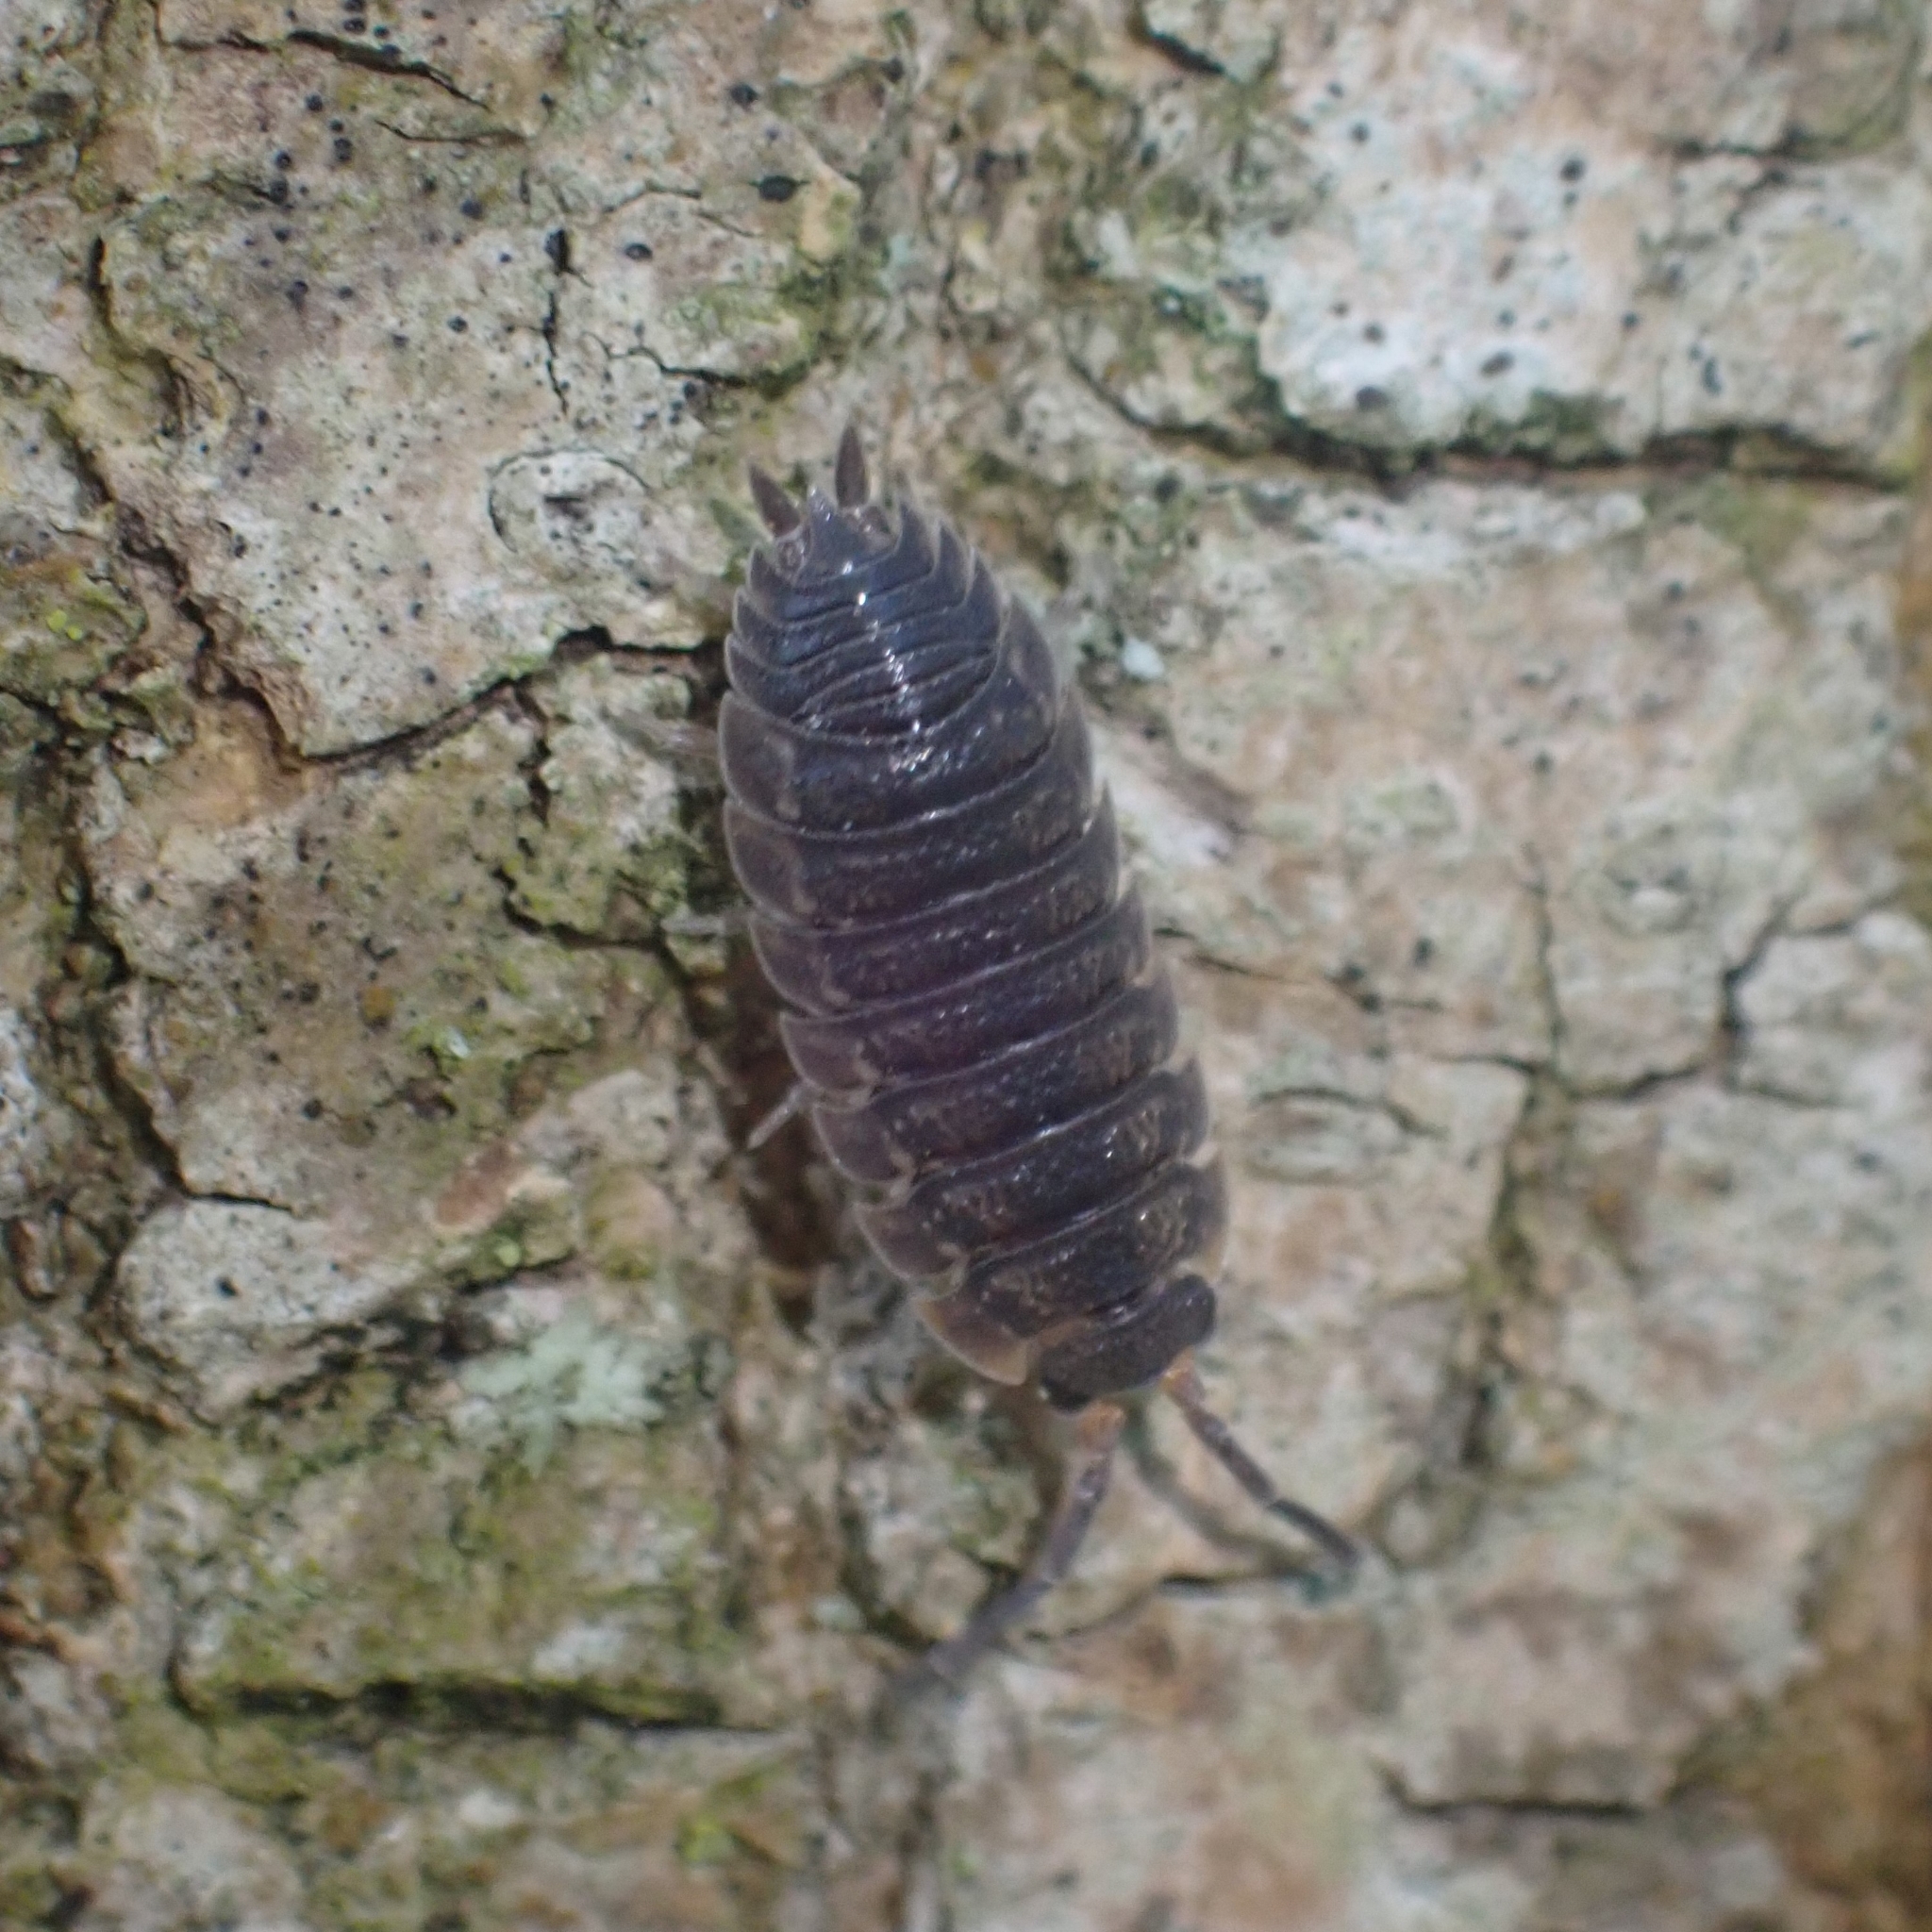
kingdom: Animalia
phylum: Arthropoda
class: Malacostraca
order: Isopoda
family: Porcellionidae
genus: Porcellio
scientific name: Porcellio scaber
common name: Common rough woodlouse
